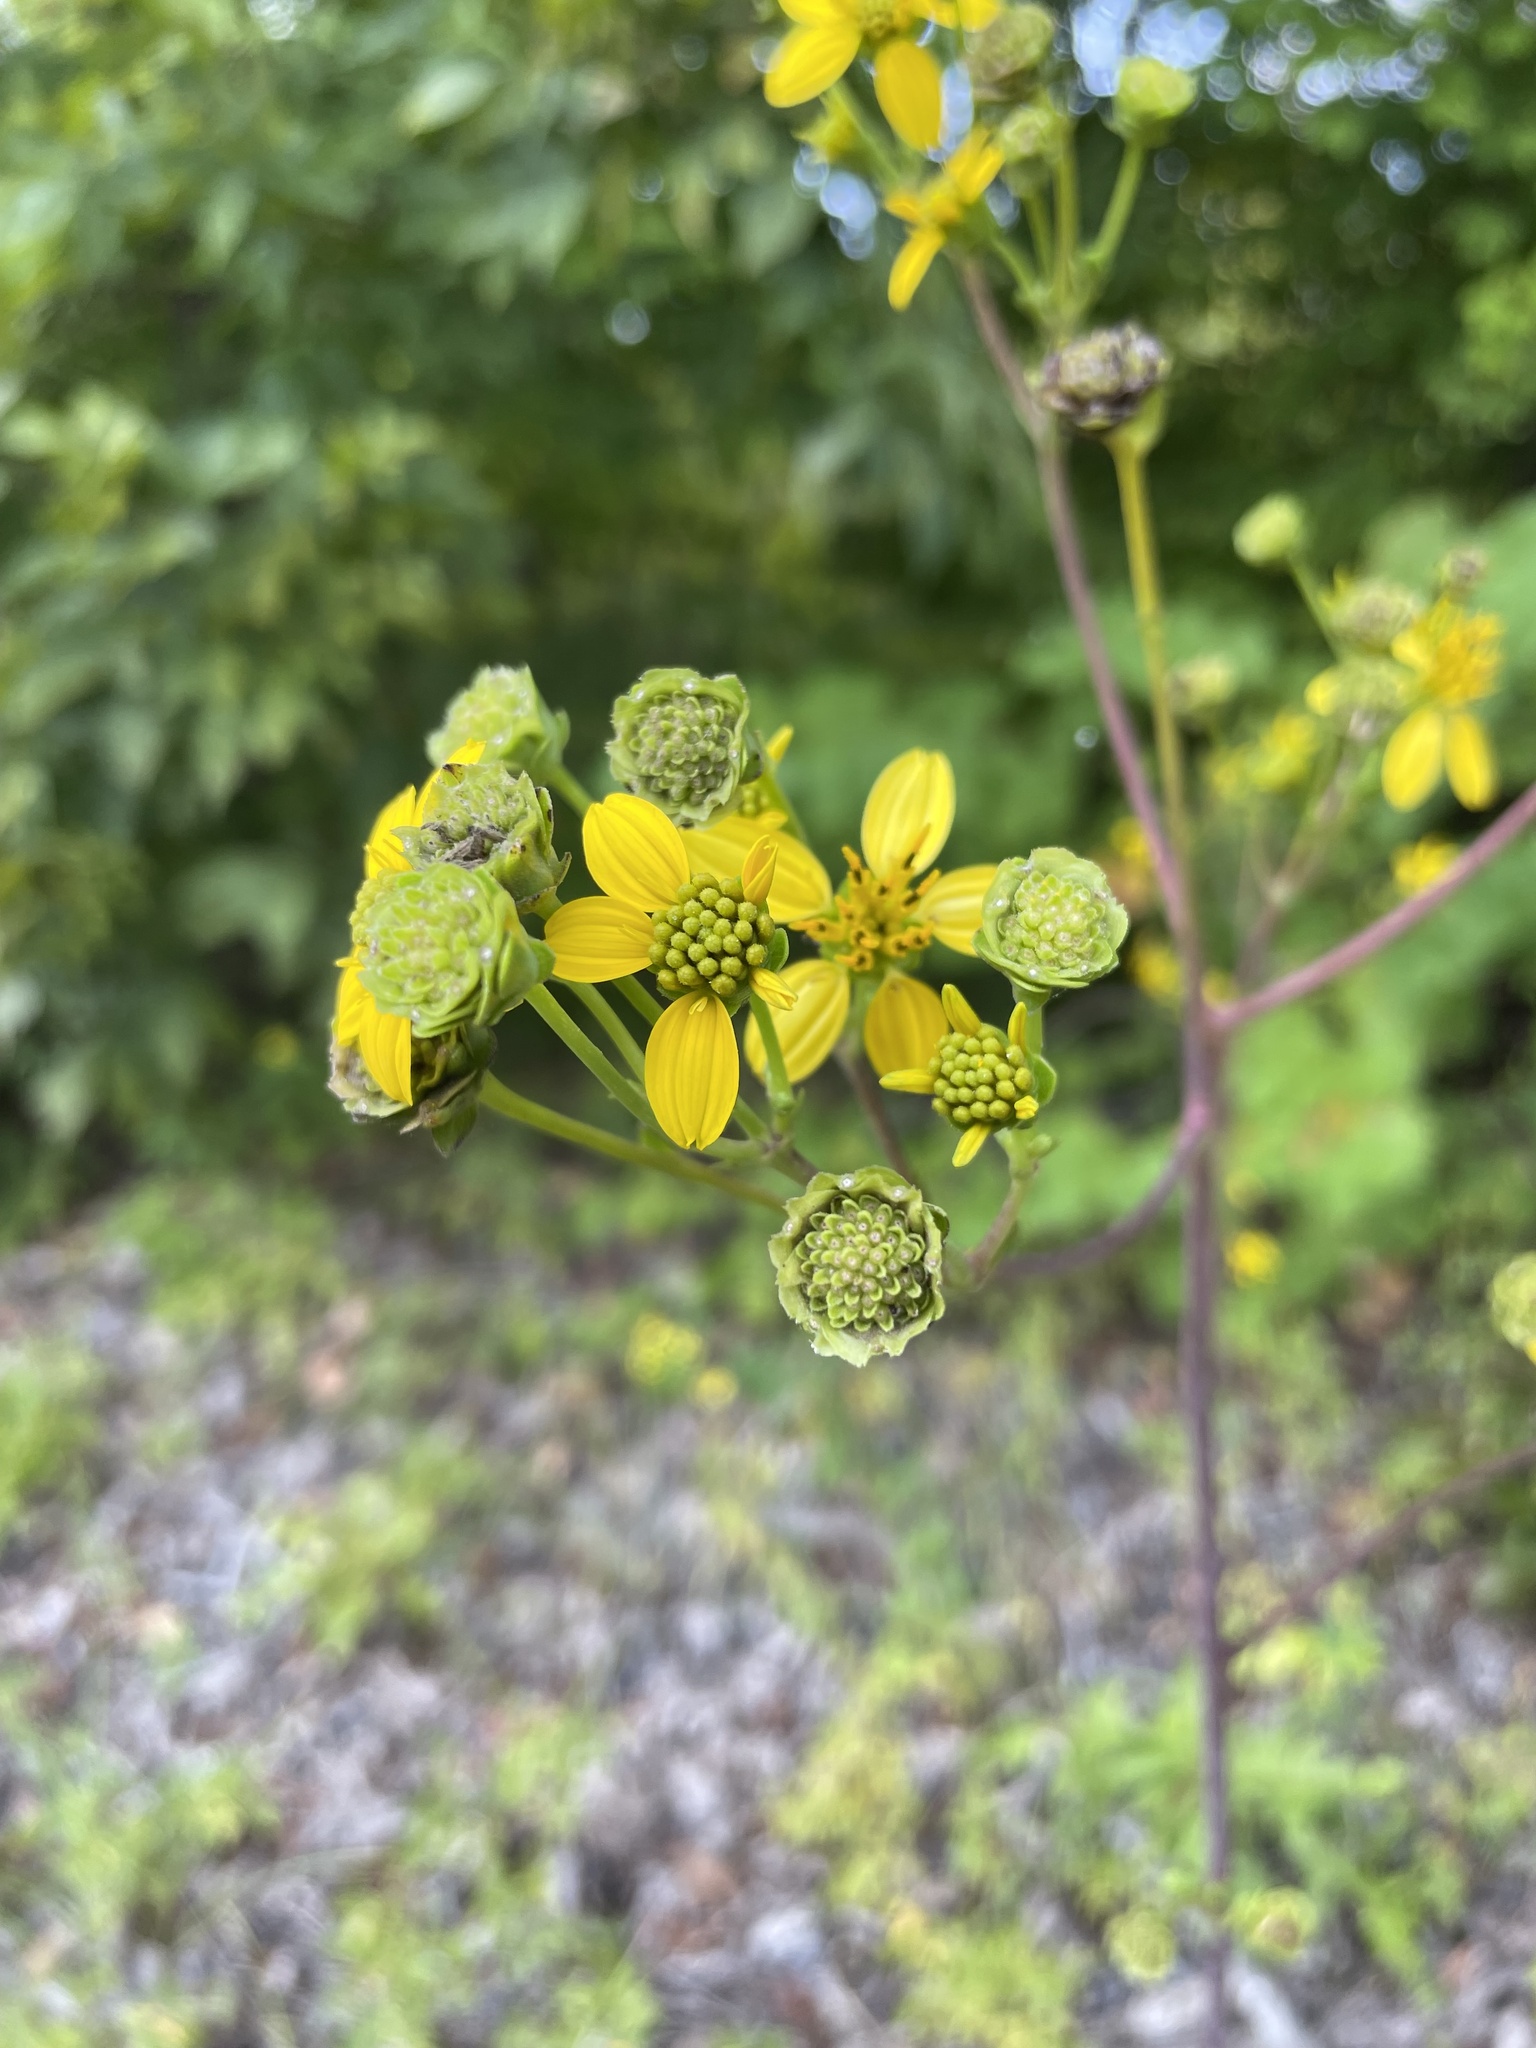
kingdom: Plantae
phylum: Tracheophyta
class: Magnoliopsida
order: Asterales
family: Asteraceae
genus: Silphium
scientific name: Silphium compositum
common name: Lesser basal-leaf rosinweed
